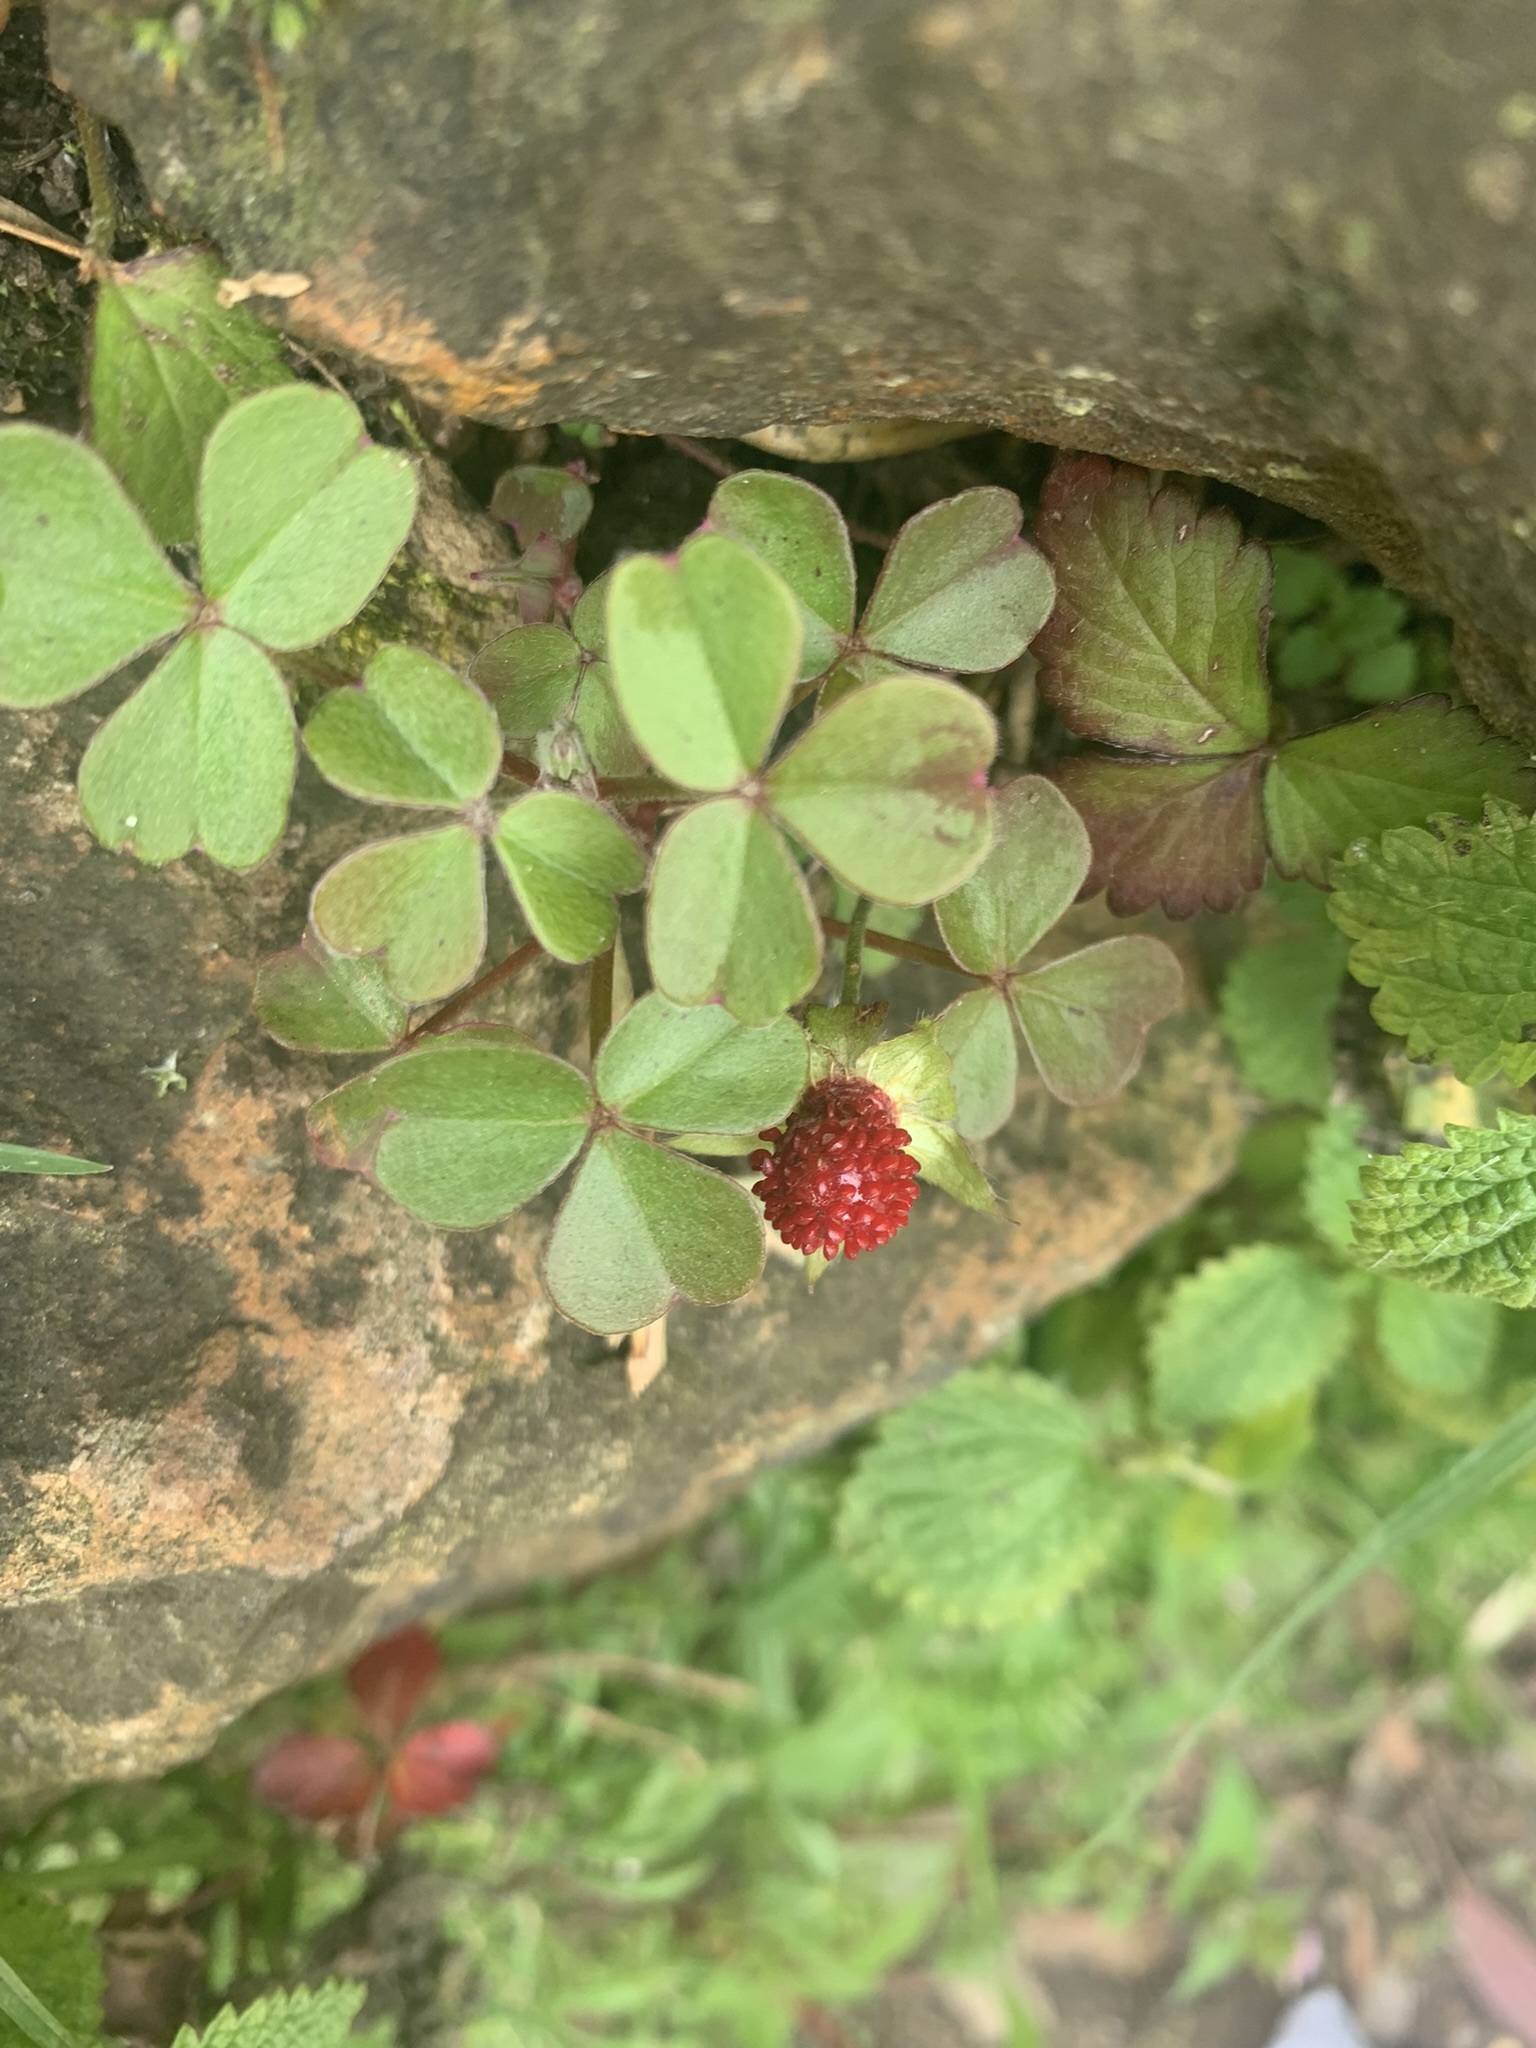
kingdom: Plantae
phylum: Tracheophyta
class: Magnoliopsida
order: Rosales
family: Rosaceae
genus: Potentilla
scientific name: Potentilla indica
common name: Yellow-flowered strawberry
